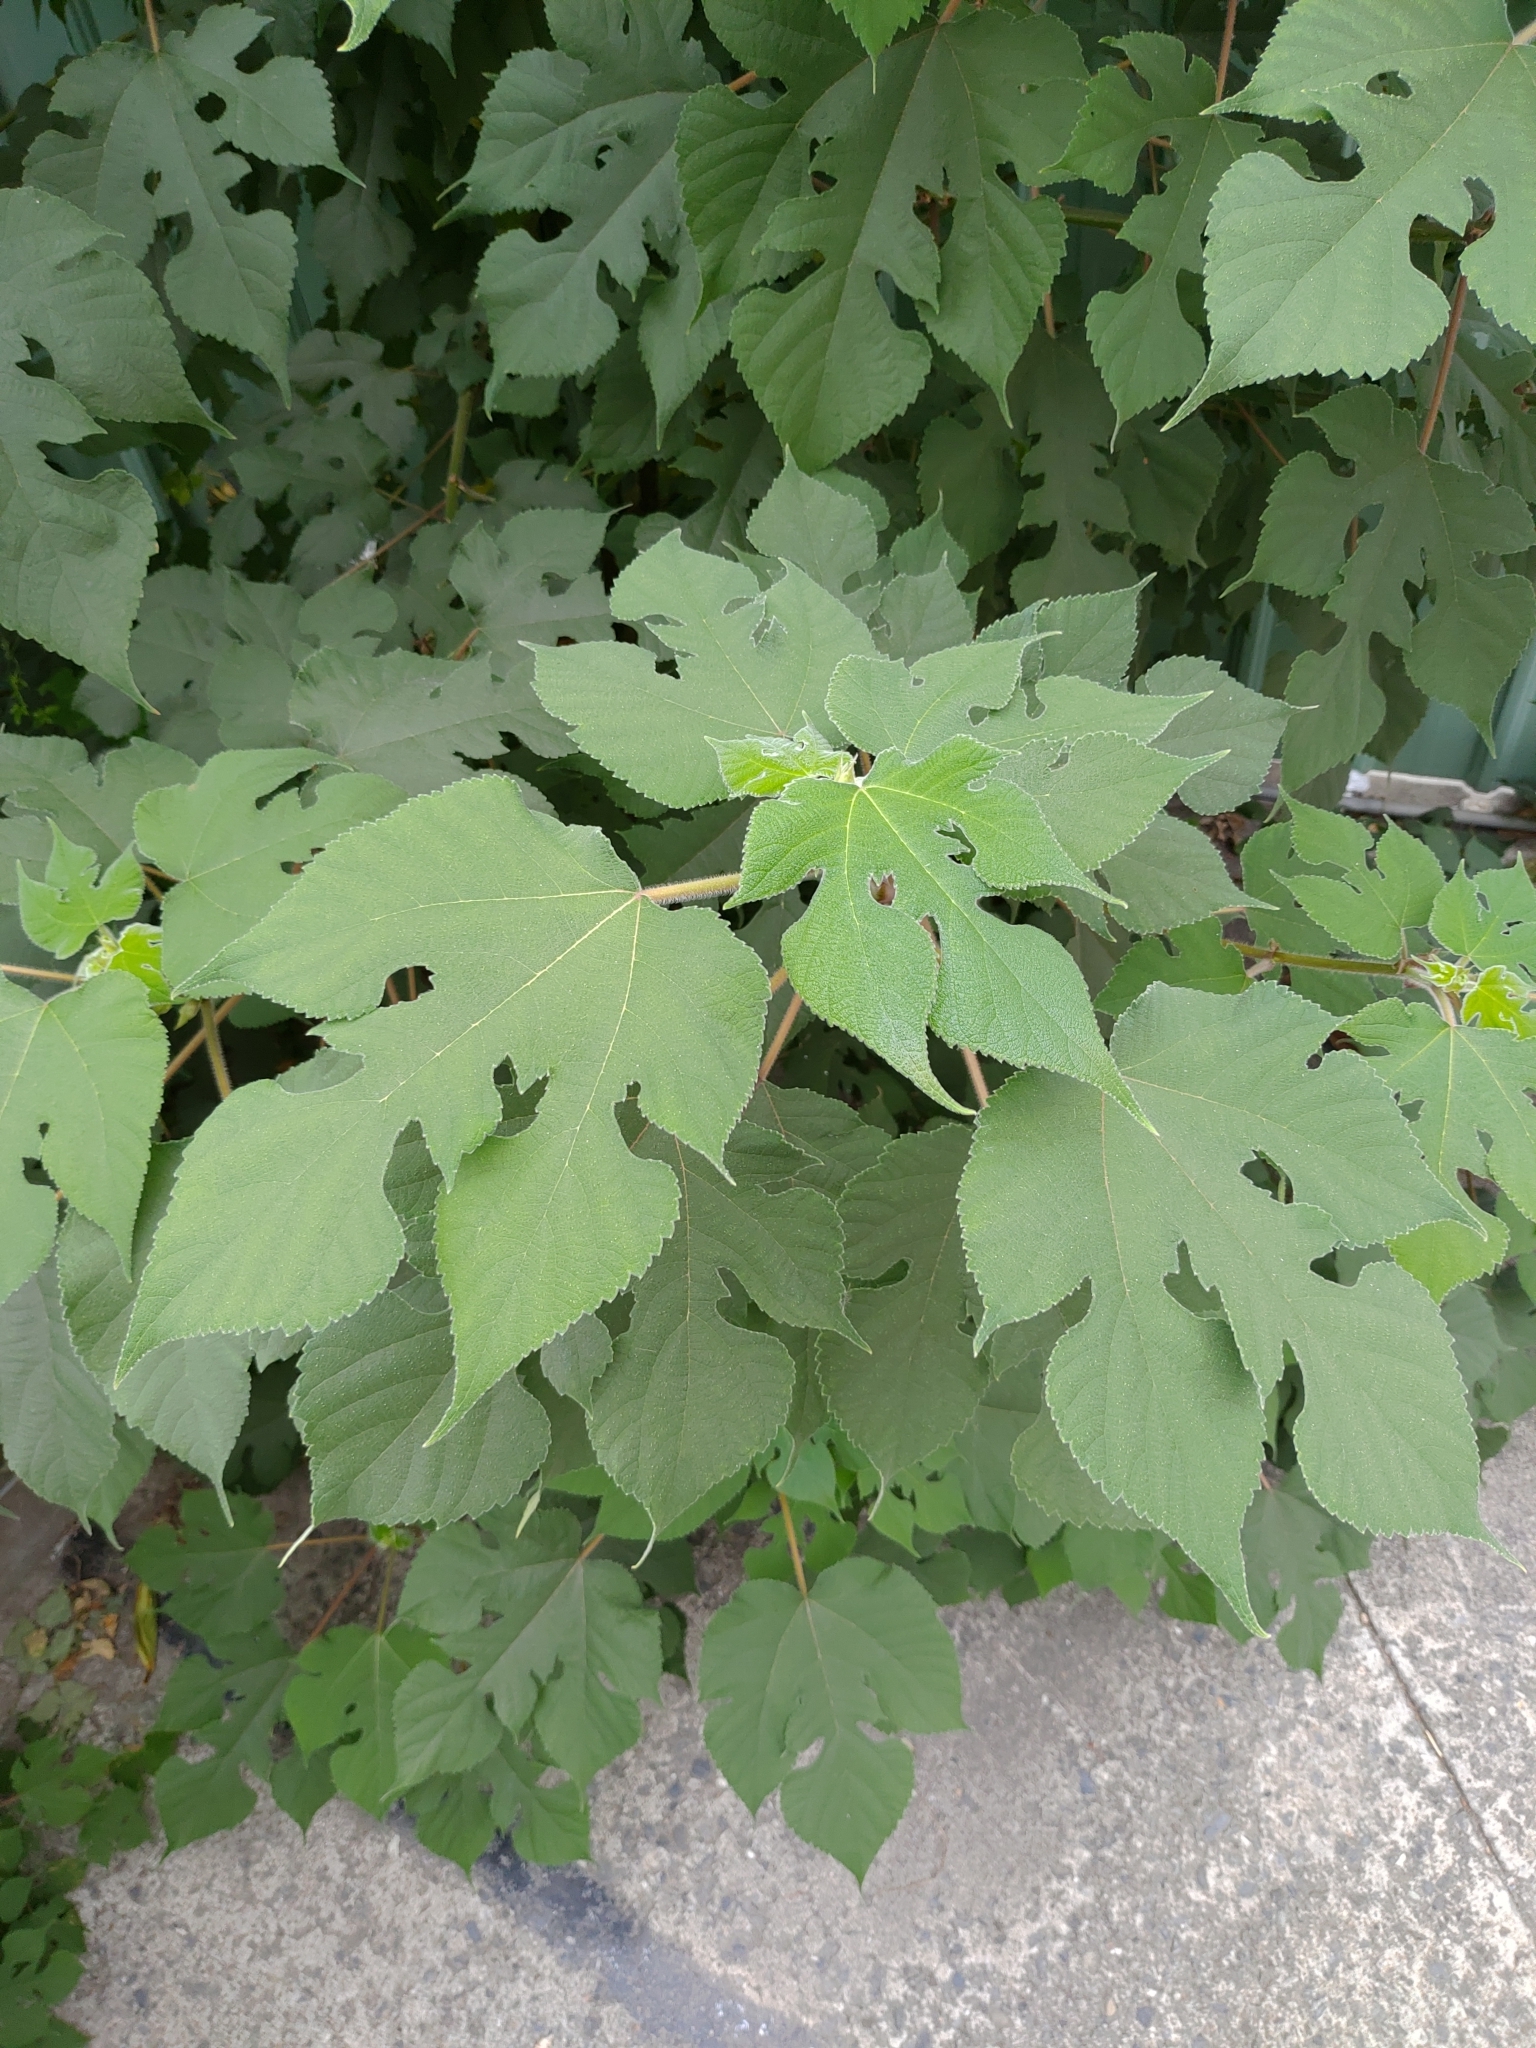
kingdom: Plantae
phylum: Tracheophyta
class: Magnoliopsida
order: Rosales
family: Moraceae
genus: Broussonetia
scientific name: Broussonetia papyrifera
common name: Paper mulberry
